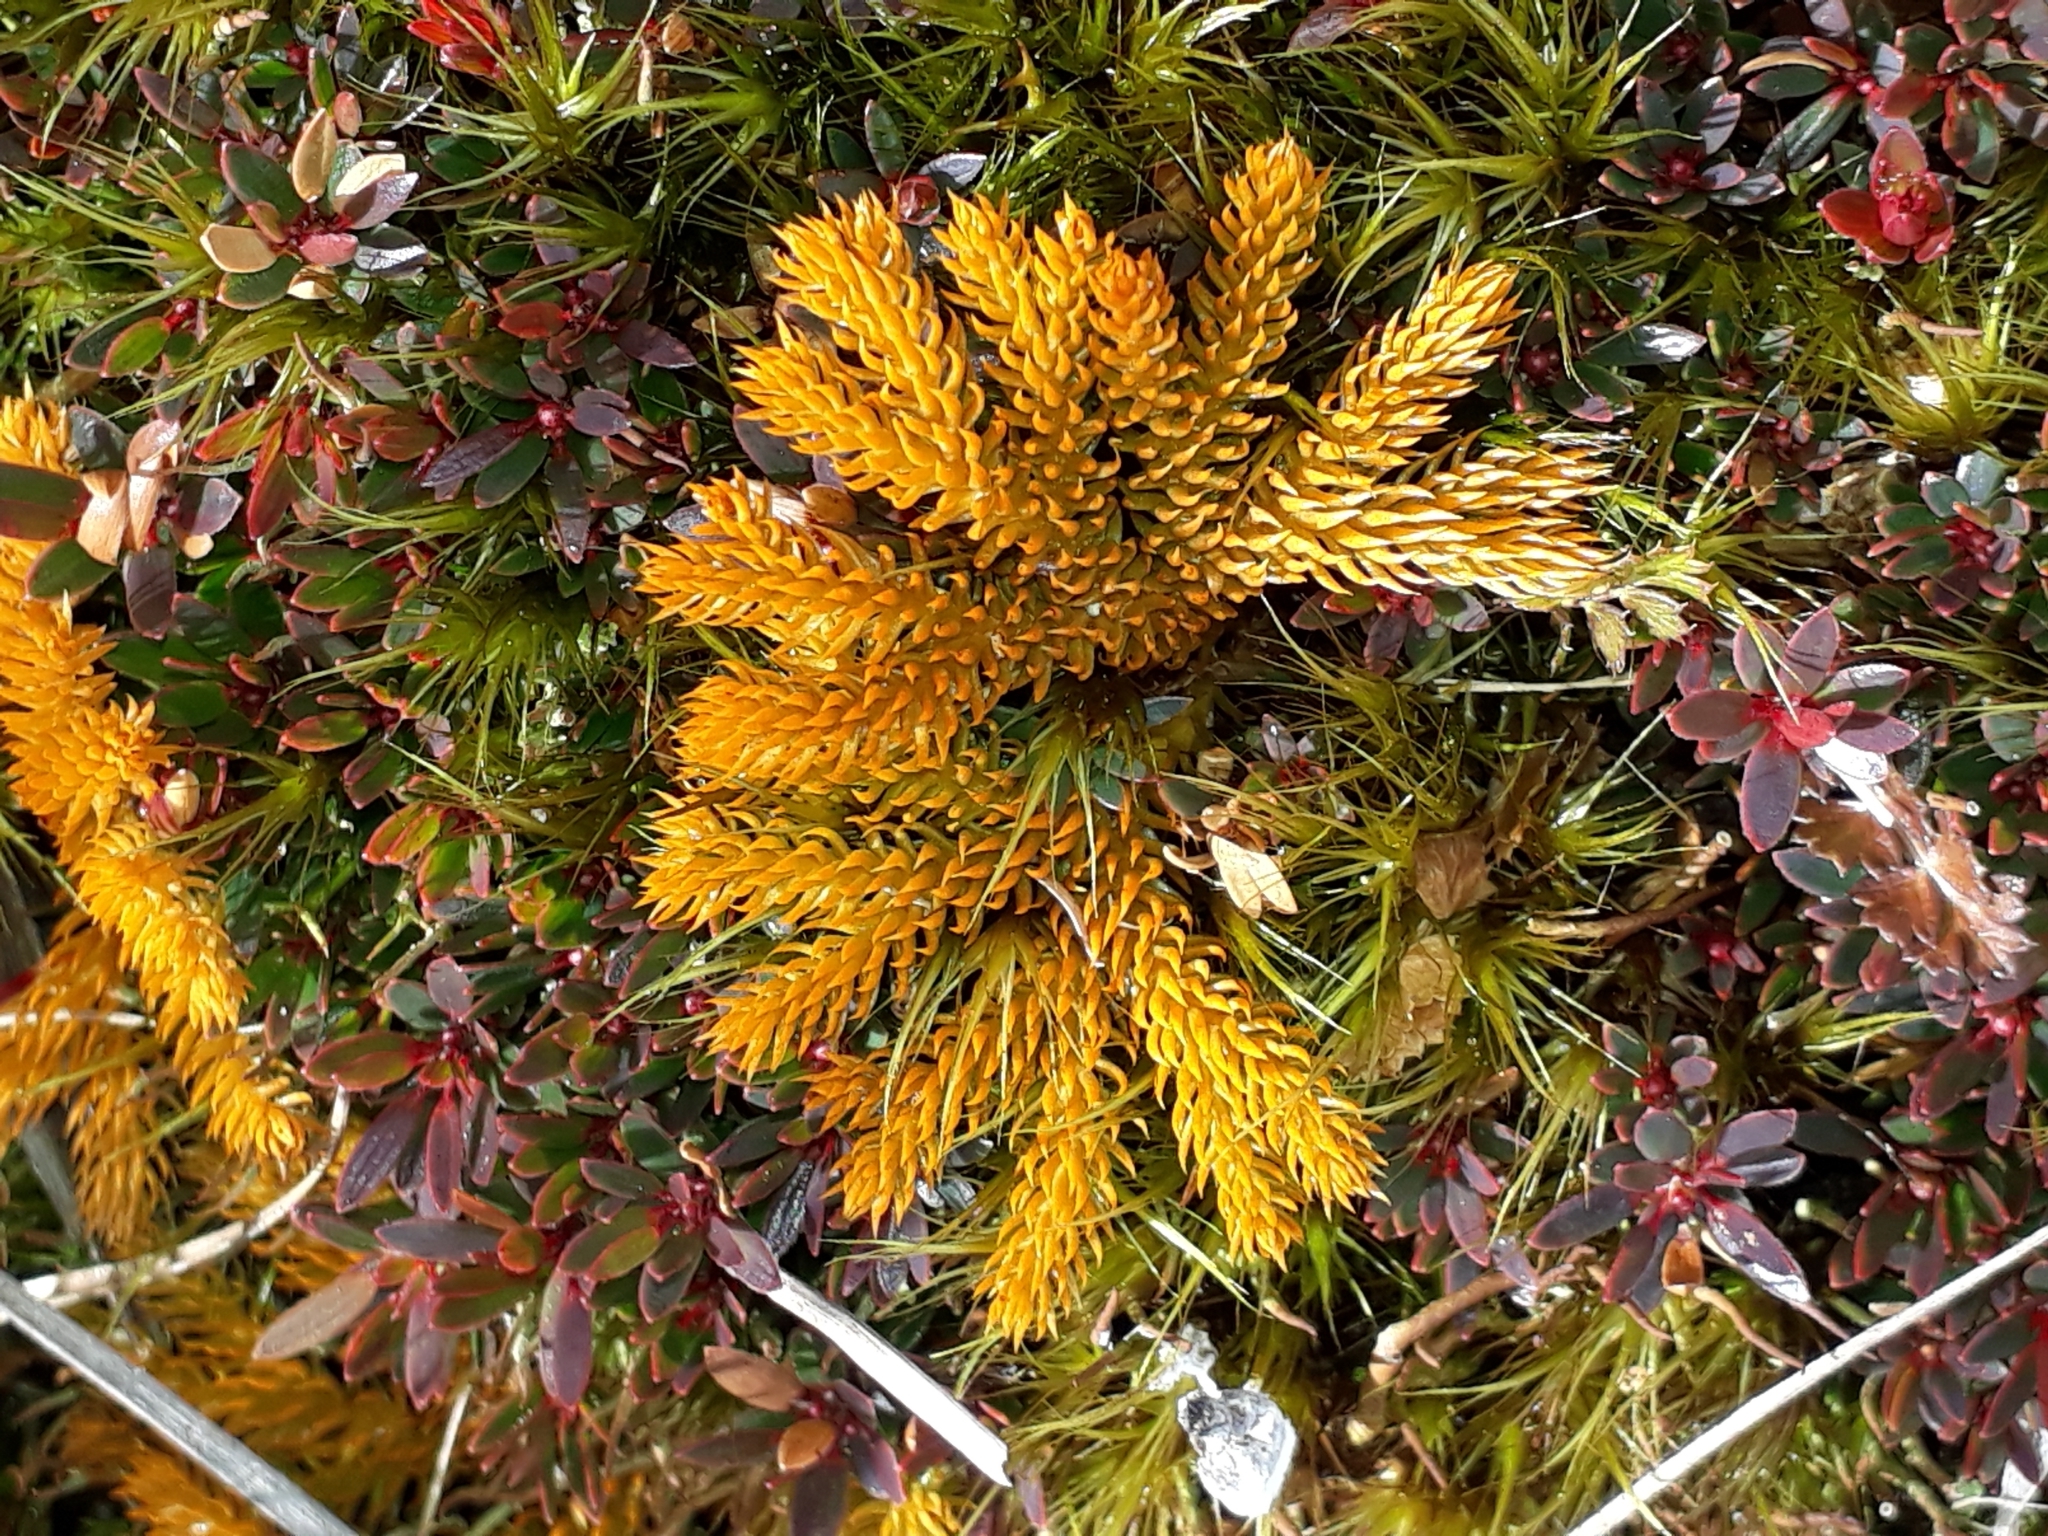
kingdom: Plantae
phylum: Tracheophyta
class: Lycopodiopsida
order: Lycopodiales
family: Lycopodiaceae
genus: Austrolycopodium
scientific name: Austrolycopodium fastigiatum
